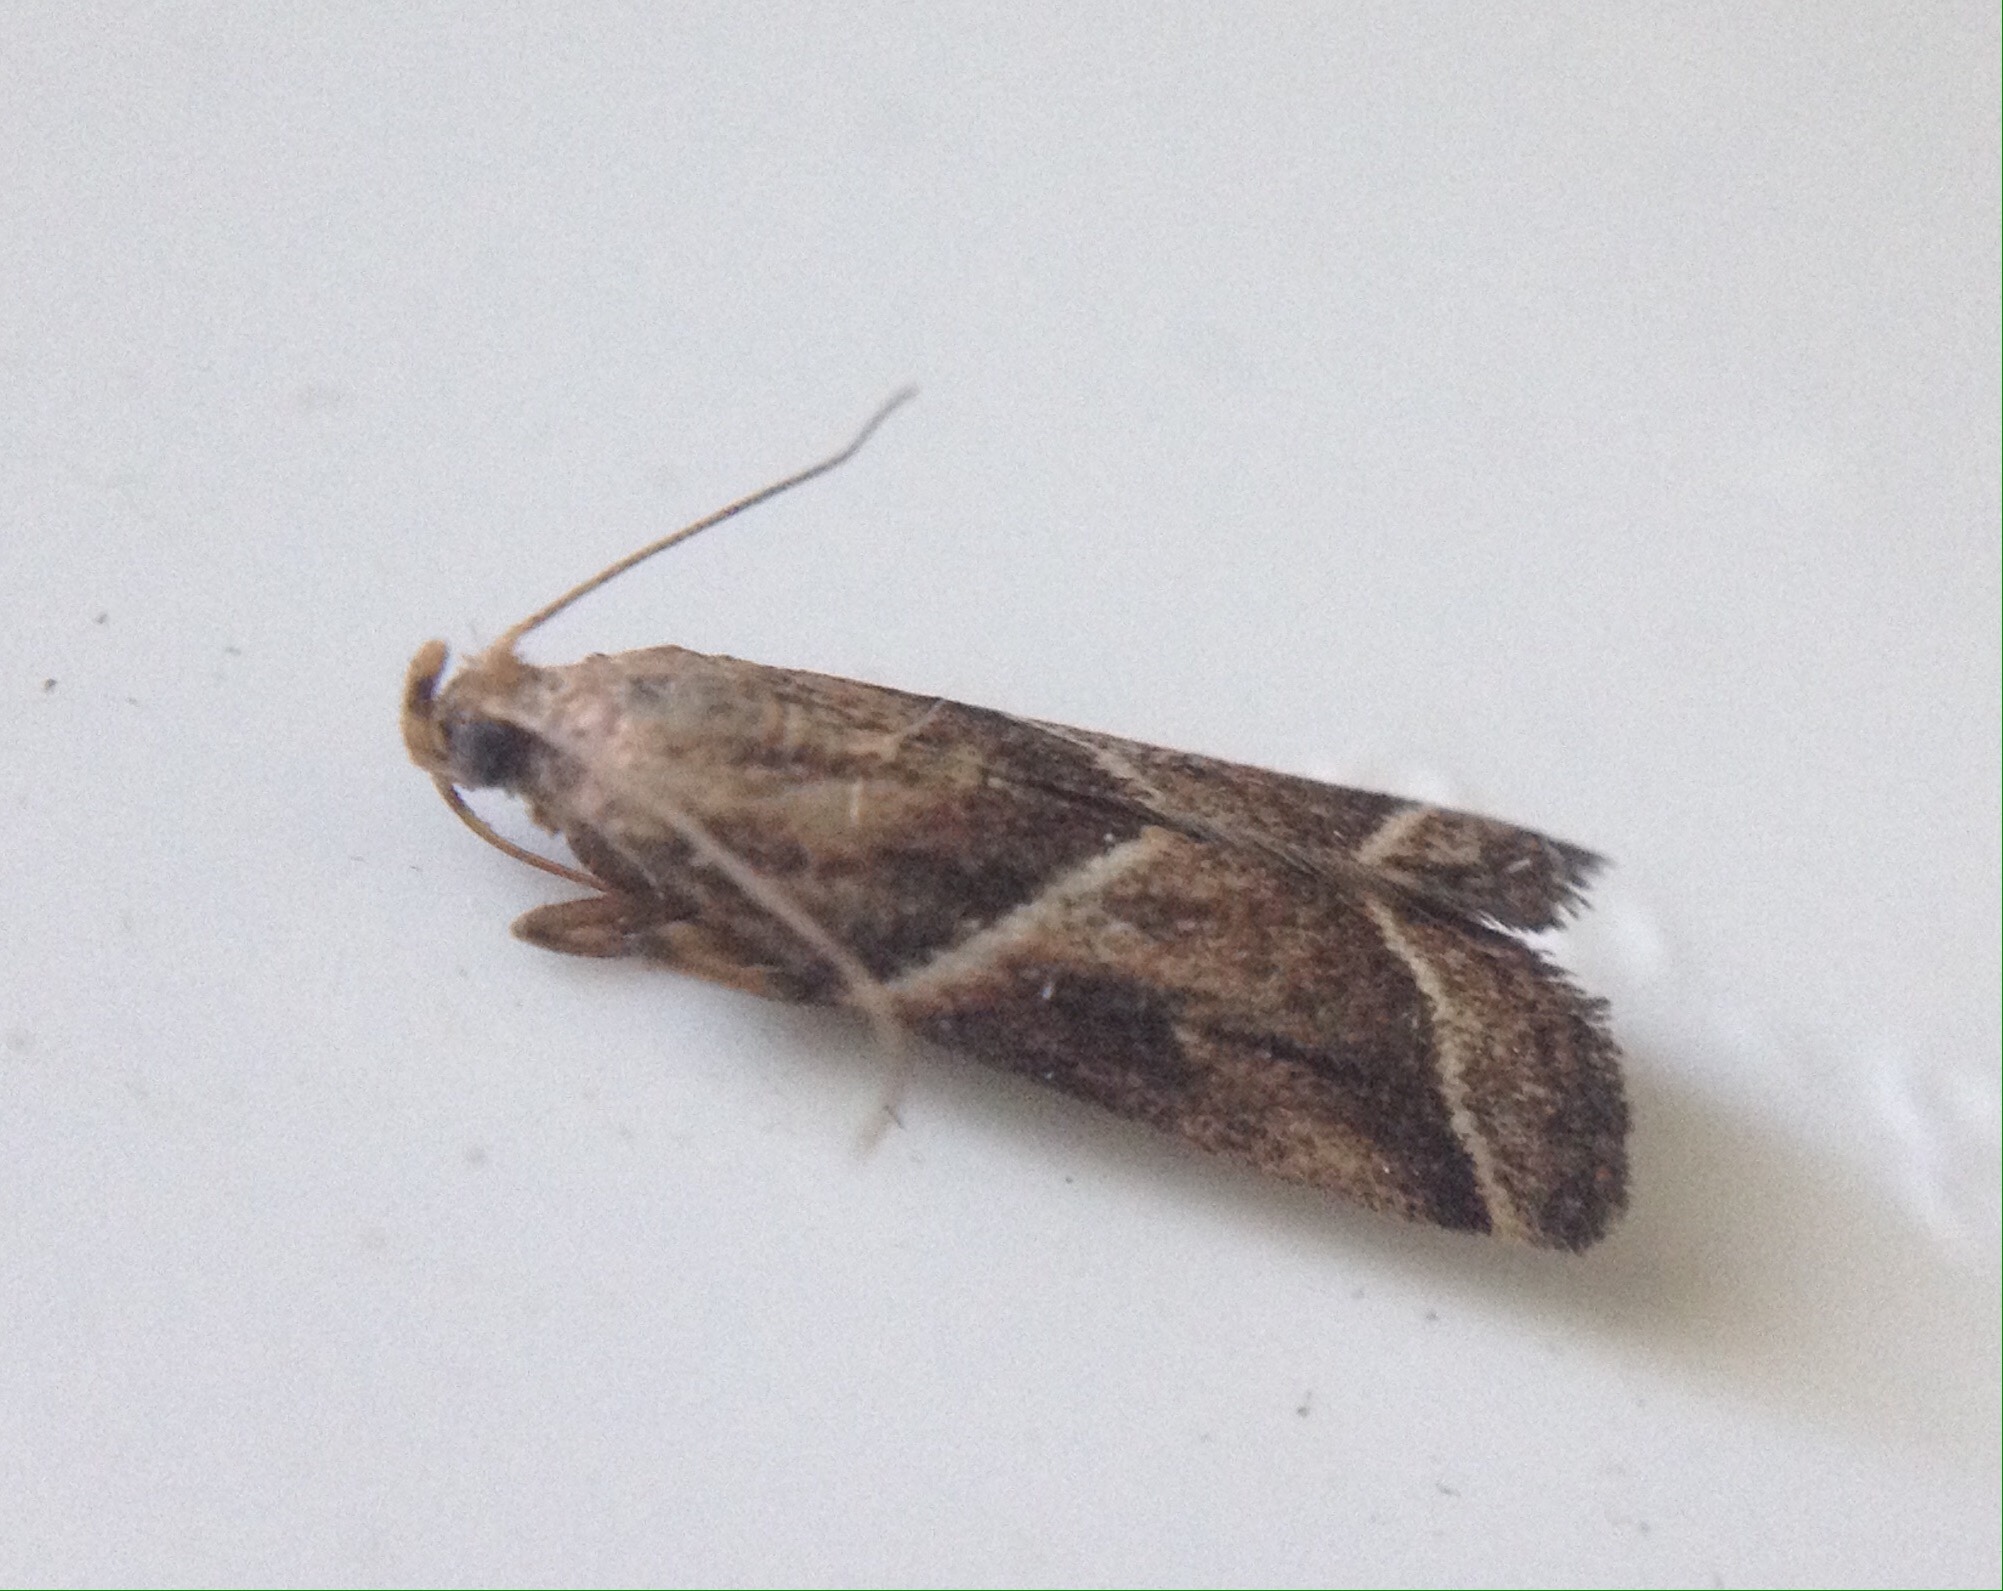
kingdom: Animalia
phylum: Arthropoda
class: Insecta
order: Lepidoptera
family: Pyralidae
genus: Nyctegretis
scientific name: Nyctegretis lineana
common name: Agate knot-horn
